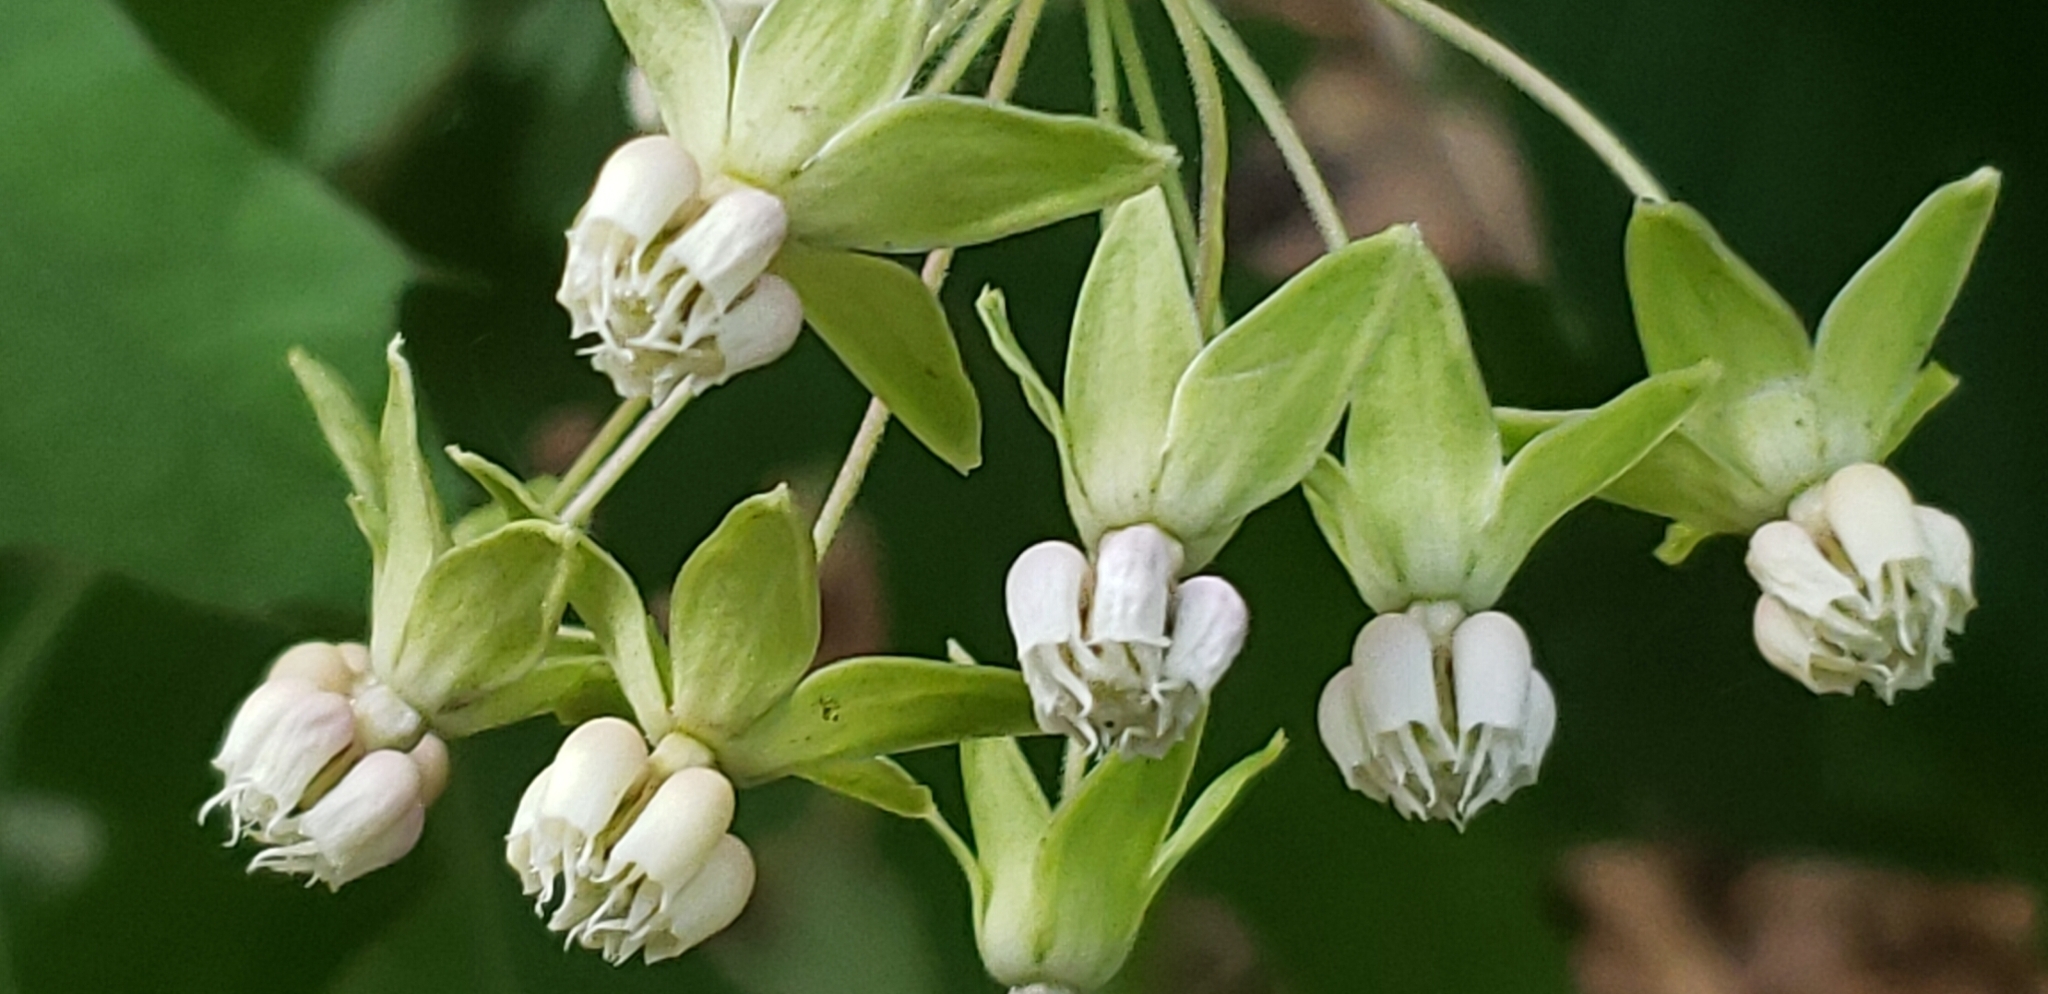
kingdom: Plantae
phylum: Tracheophyta
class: Magnoliopsida
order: Gentianales
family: Apocynaceae
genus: Asclepias
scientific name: Asclepias exaltata
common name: Poke milkweed
